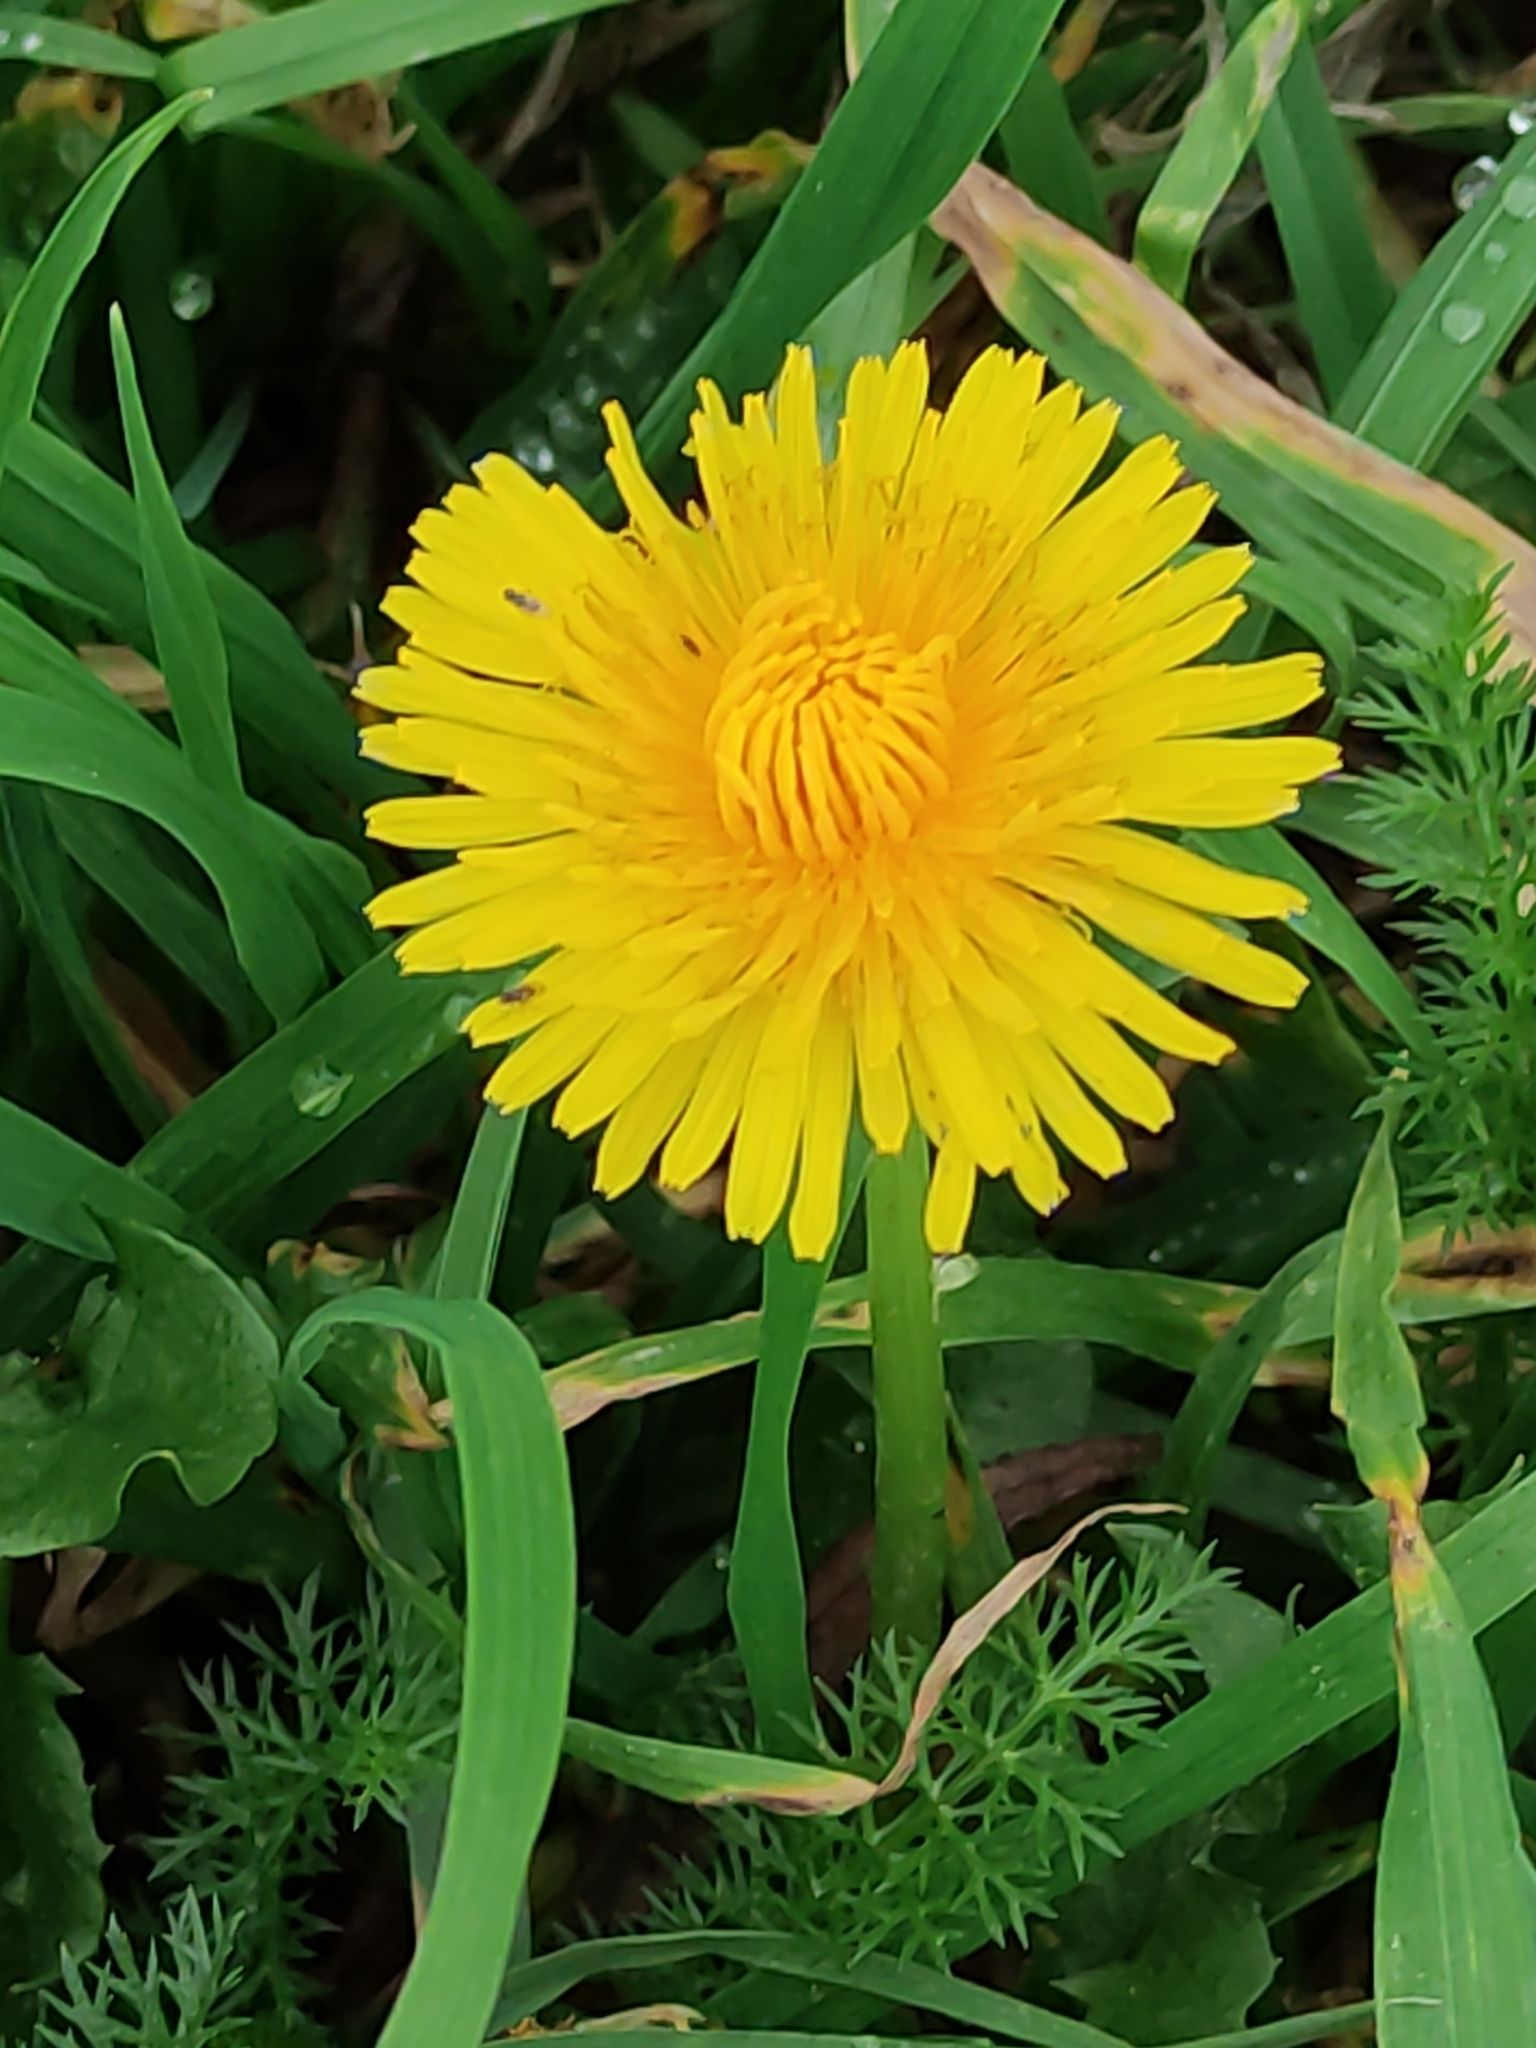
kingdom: Plantae
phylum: Tracheophyta
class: Magnoliopsida
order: Asterales
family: Asteraceae
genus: Taraxacum
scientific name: Taraxacum officinale
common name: Common dandelion
